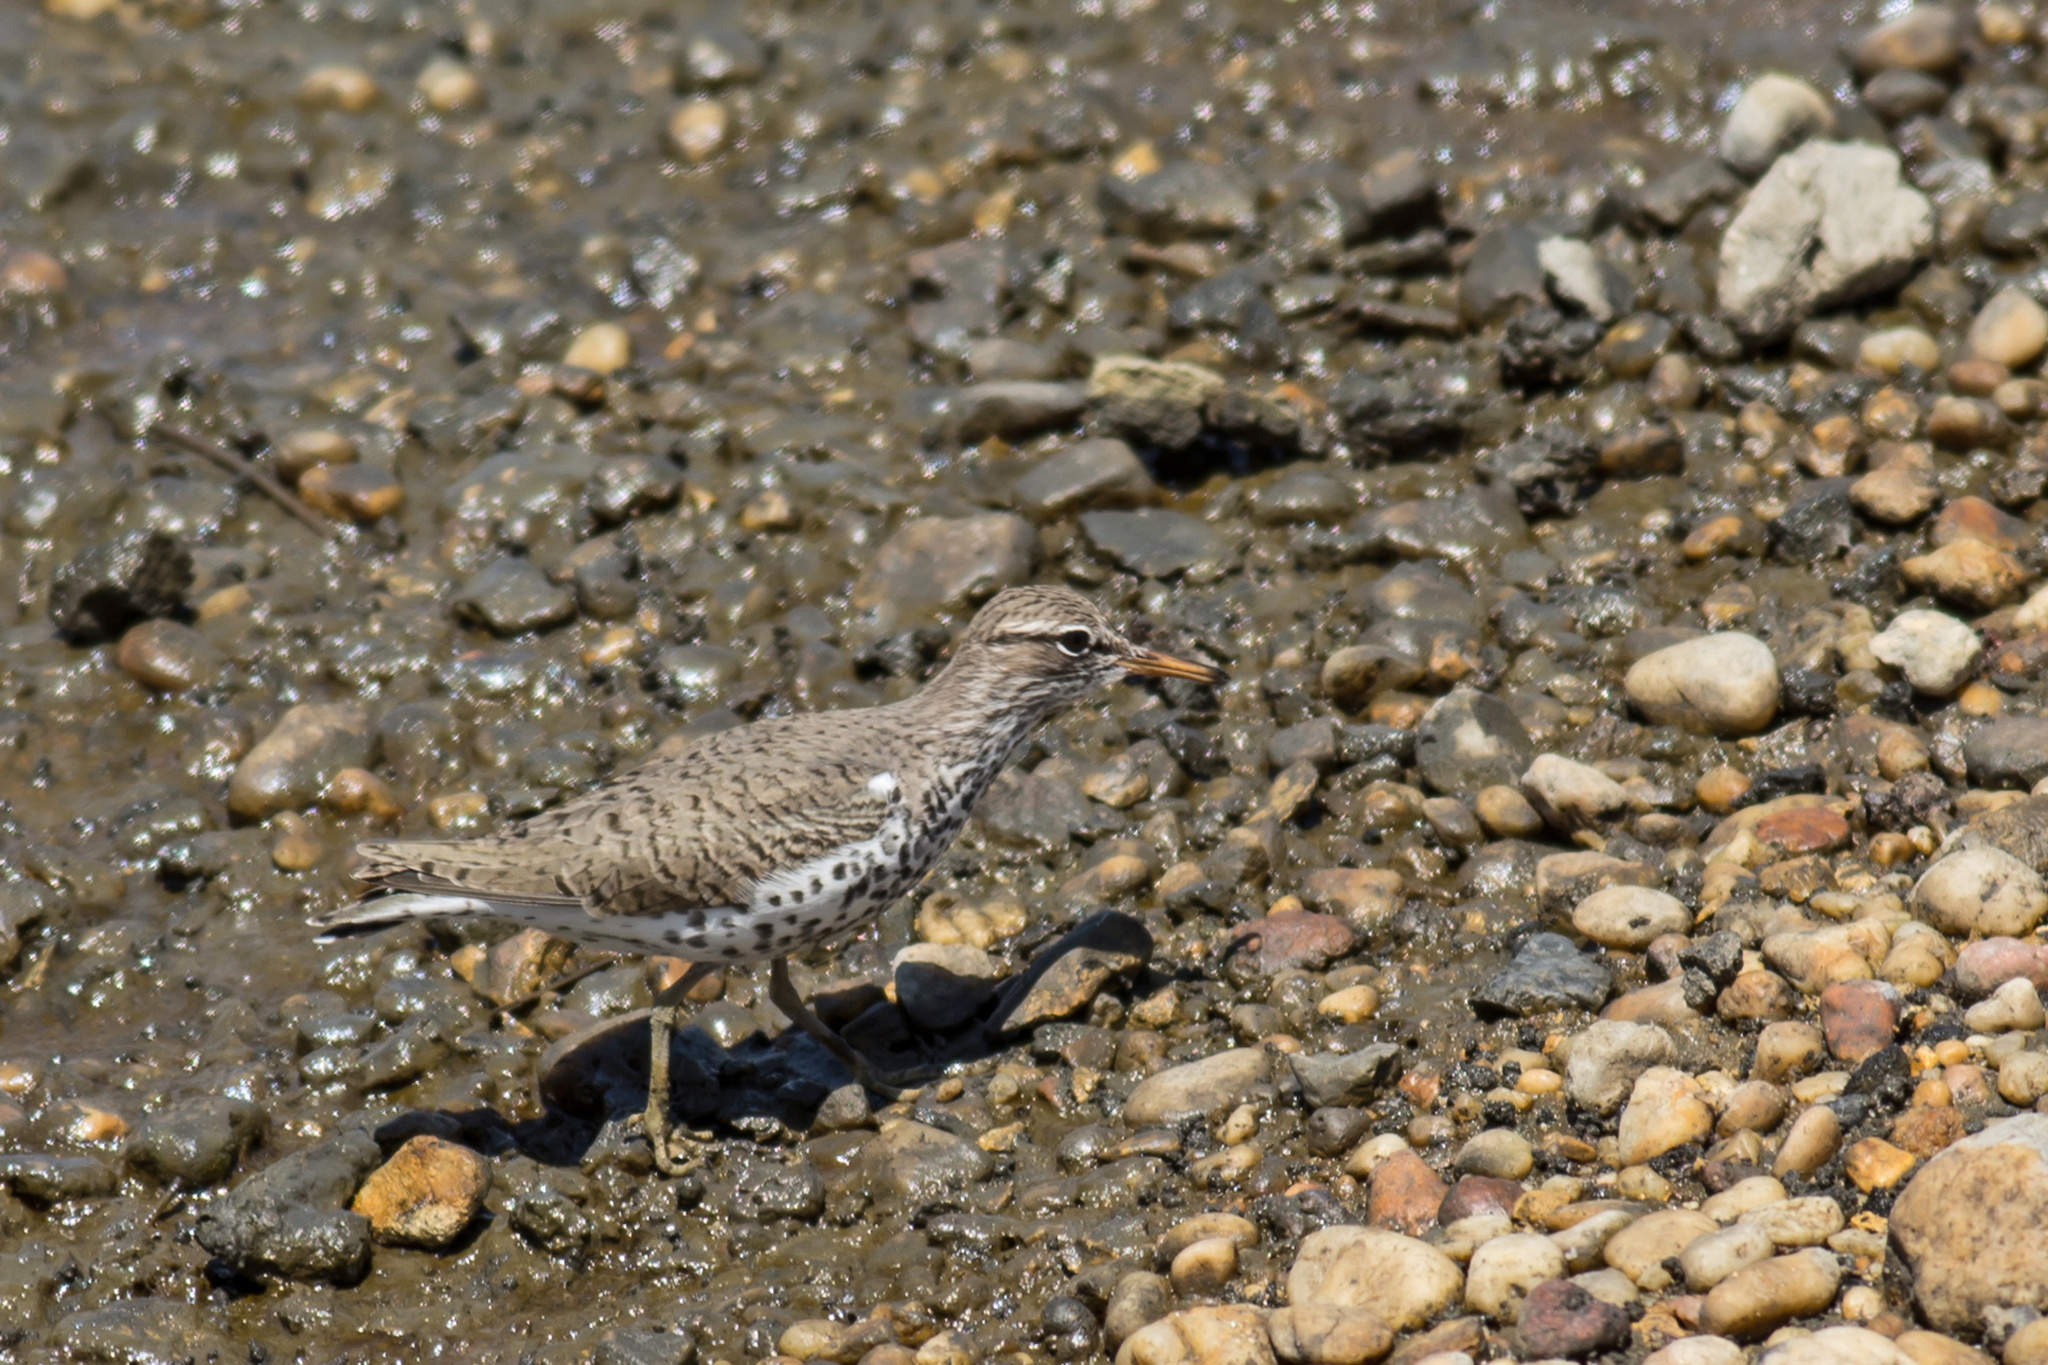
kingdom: Animalia
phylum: Chordata
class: Aves
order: Charadriiformes
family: Scolopacidae
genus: Actitis
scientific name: Actitis macularius
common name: Spotted sandpiper
